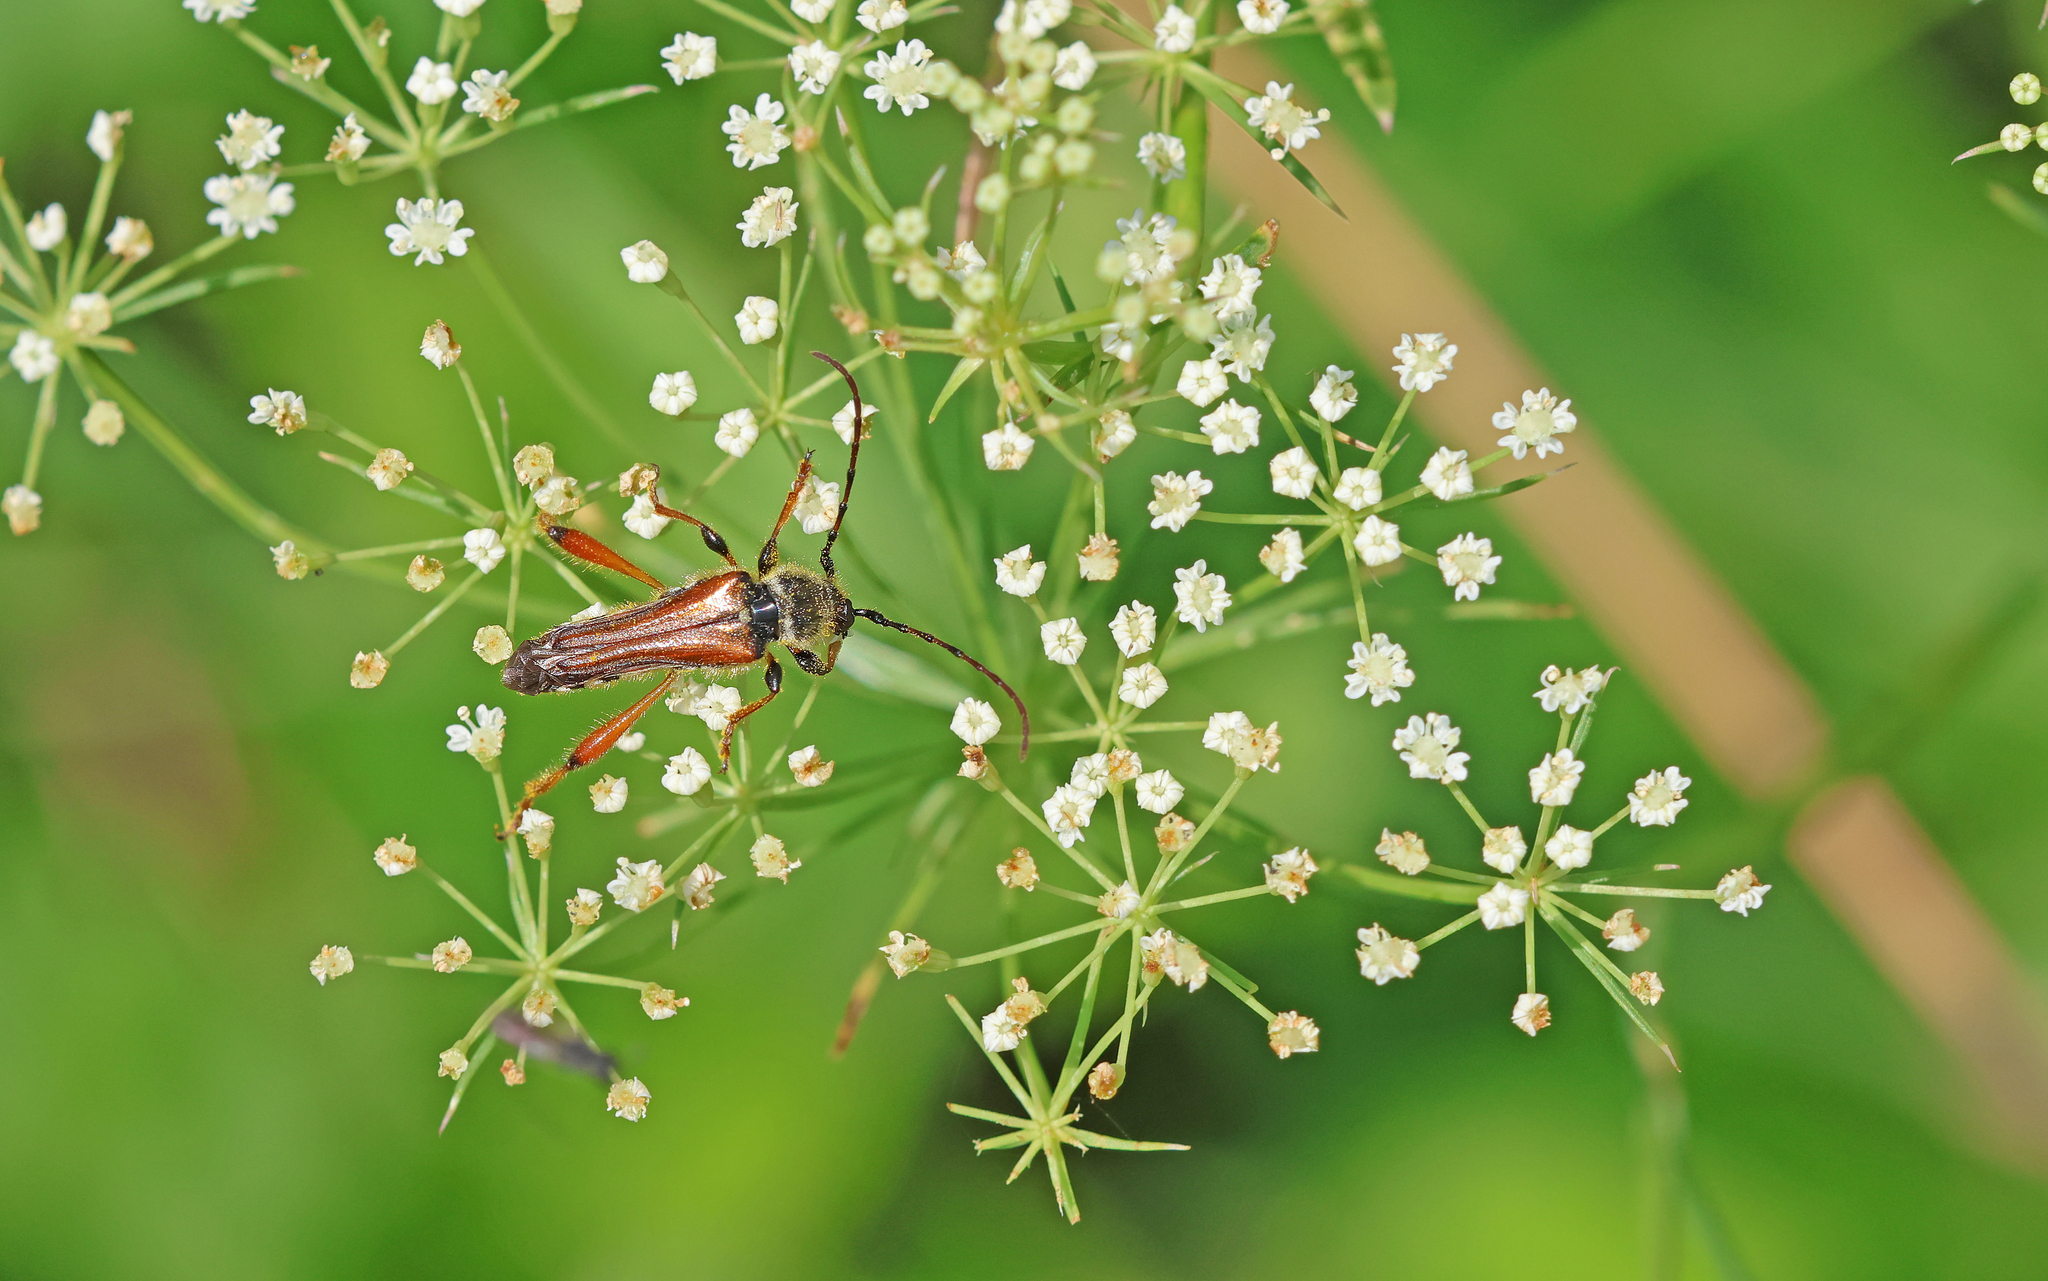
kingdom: Animalia
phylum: Arthropoda
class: Insecta
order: Coleoptera
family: Cerambycidae
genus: Stenopterus
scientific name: Stenopterus rufus
